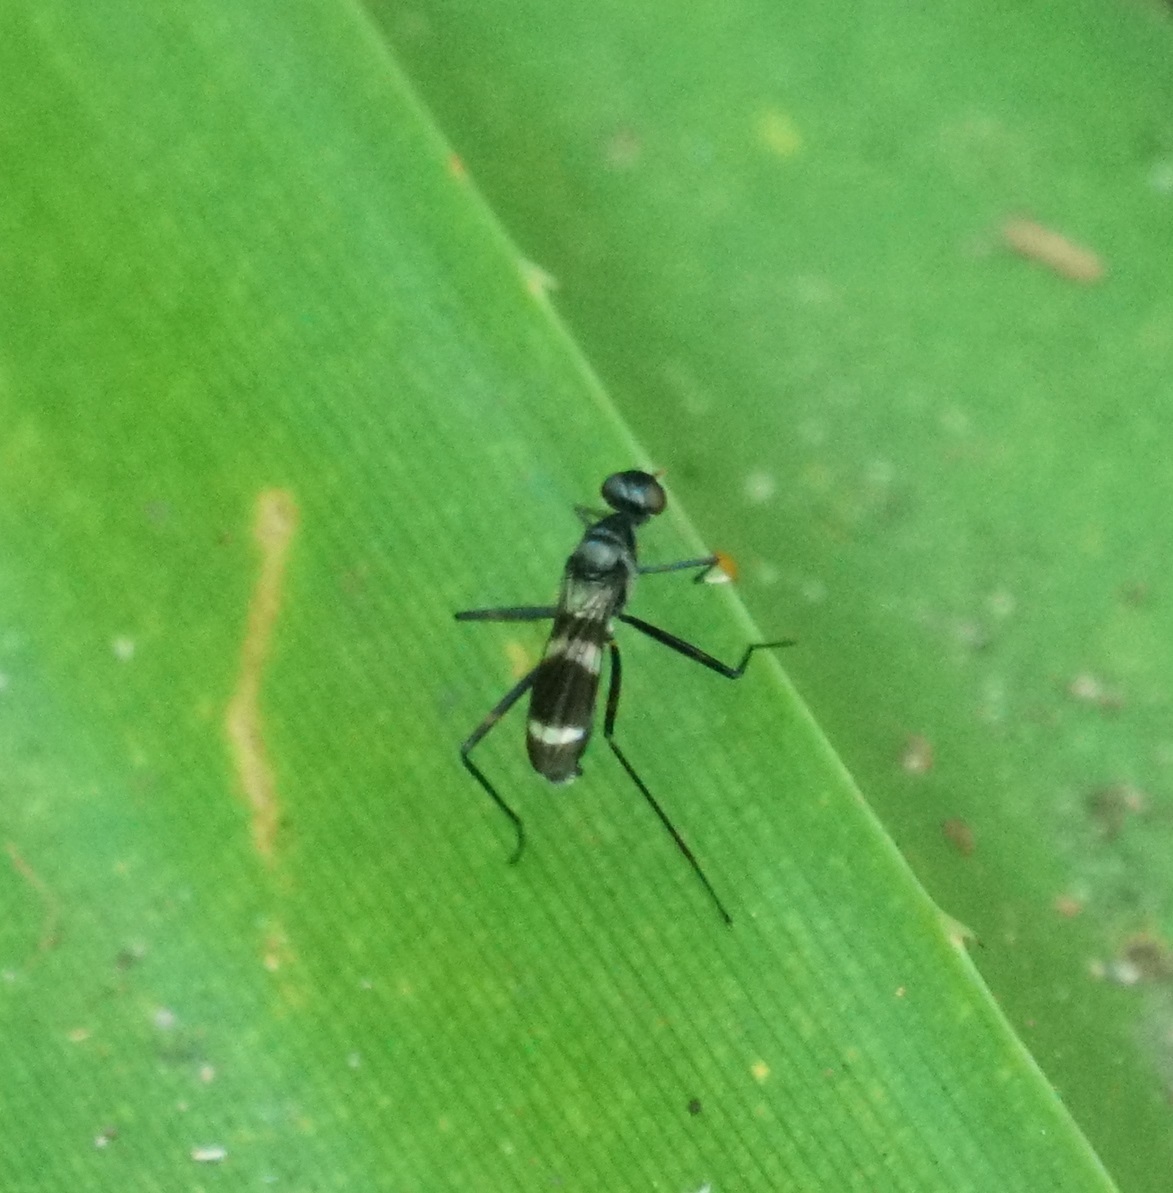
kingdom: Animalia
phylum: Arthropoda
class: Insecta
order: Diptera
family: Micropezidae
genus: Mimegralla
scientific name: Mimegralla australica
